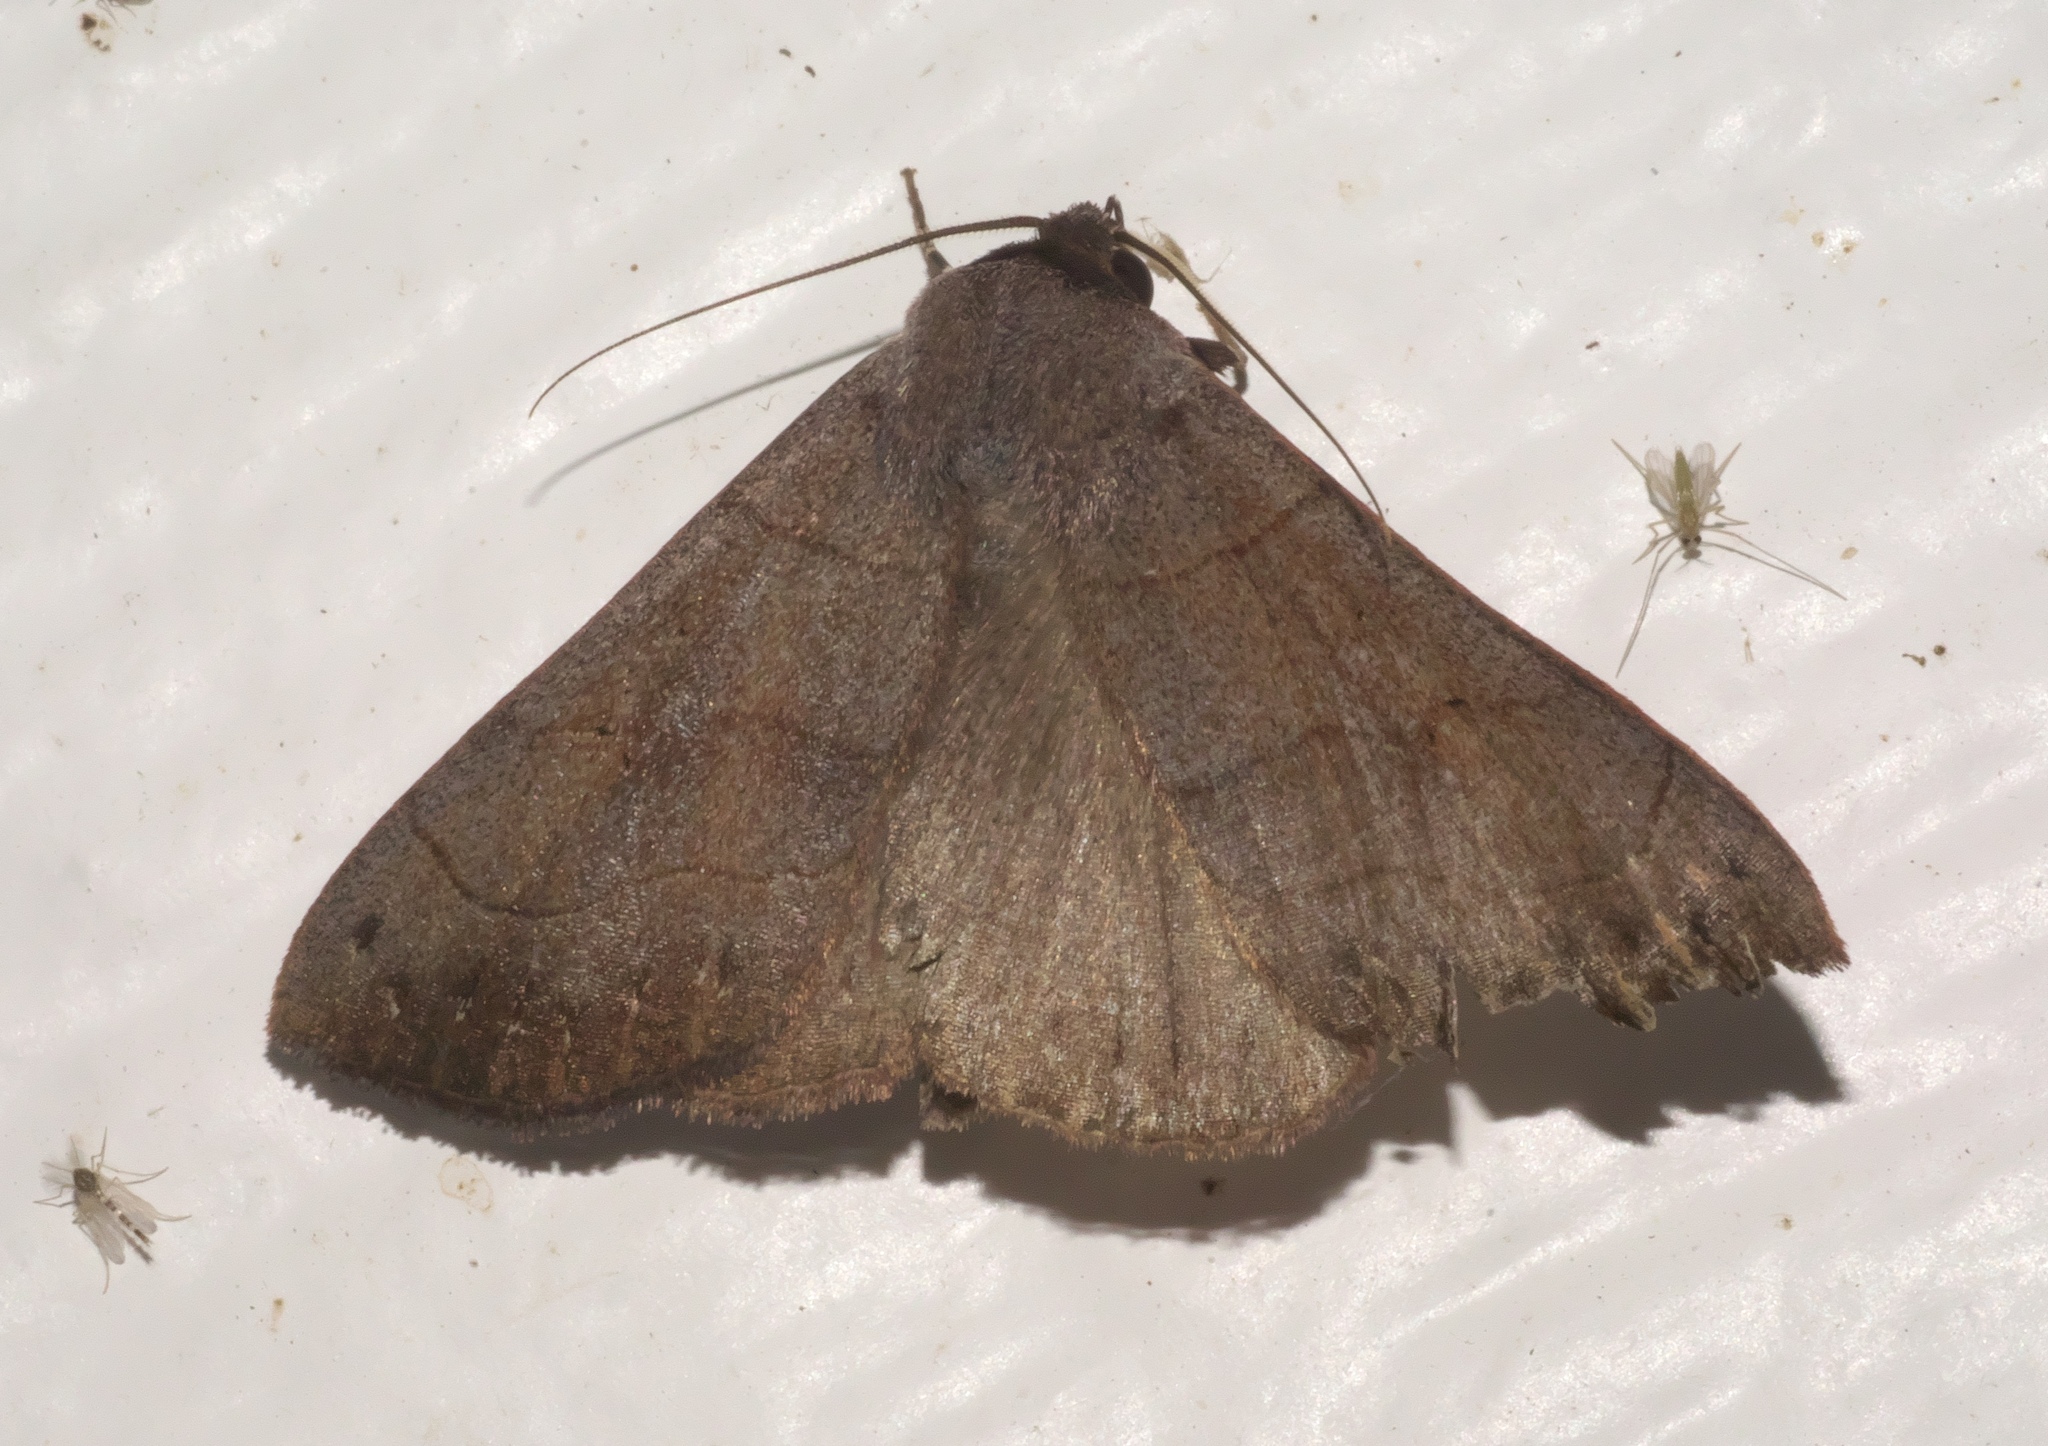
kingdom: Animalia
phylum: Arthropoda
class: Insecta
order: Lepidoptera
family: Erebidae
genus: Panopoda
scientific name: Panopoda carneicosta
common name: Brown panopoda moth
